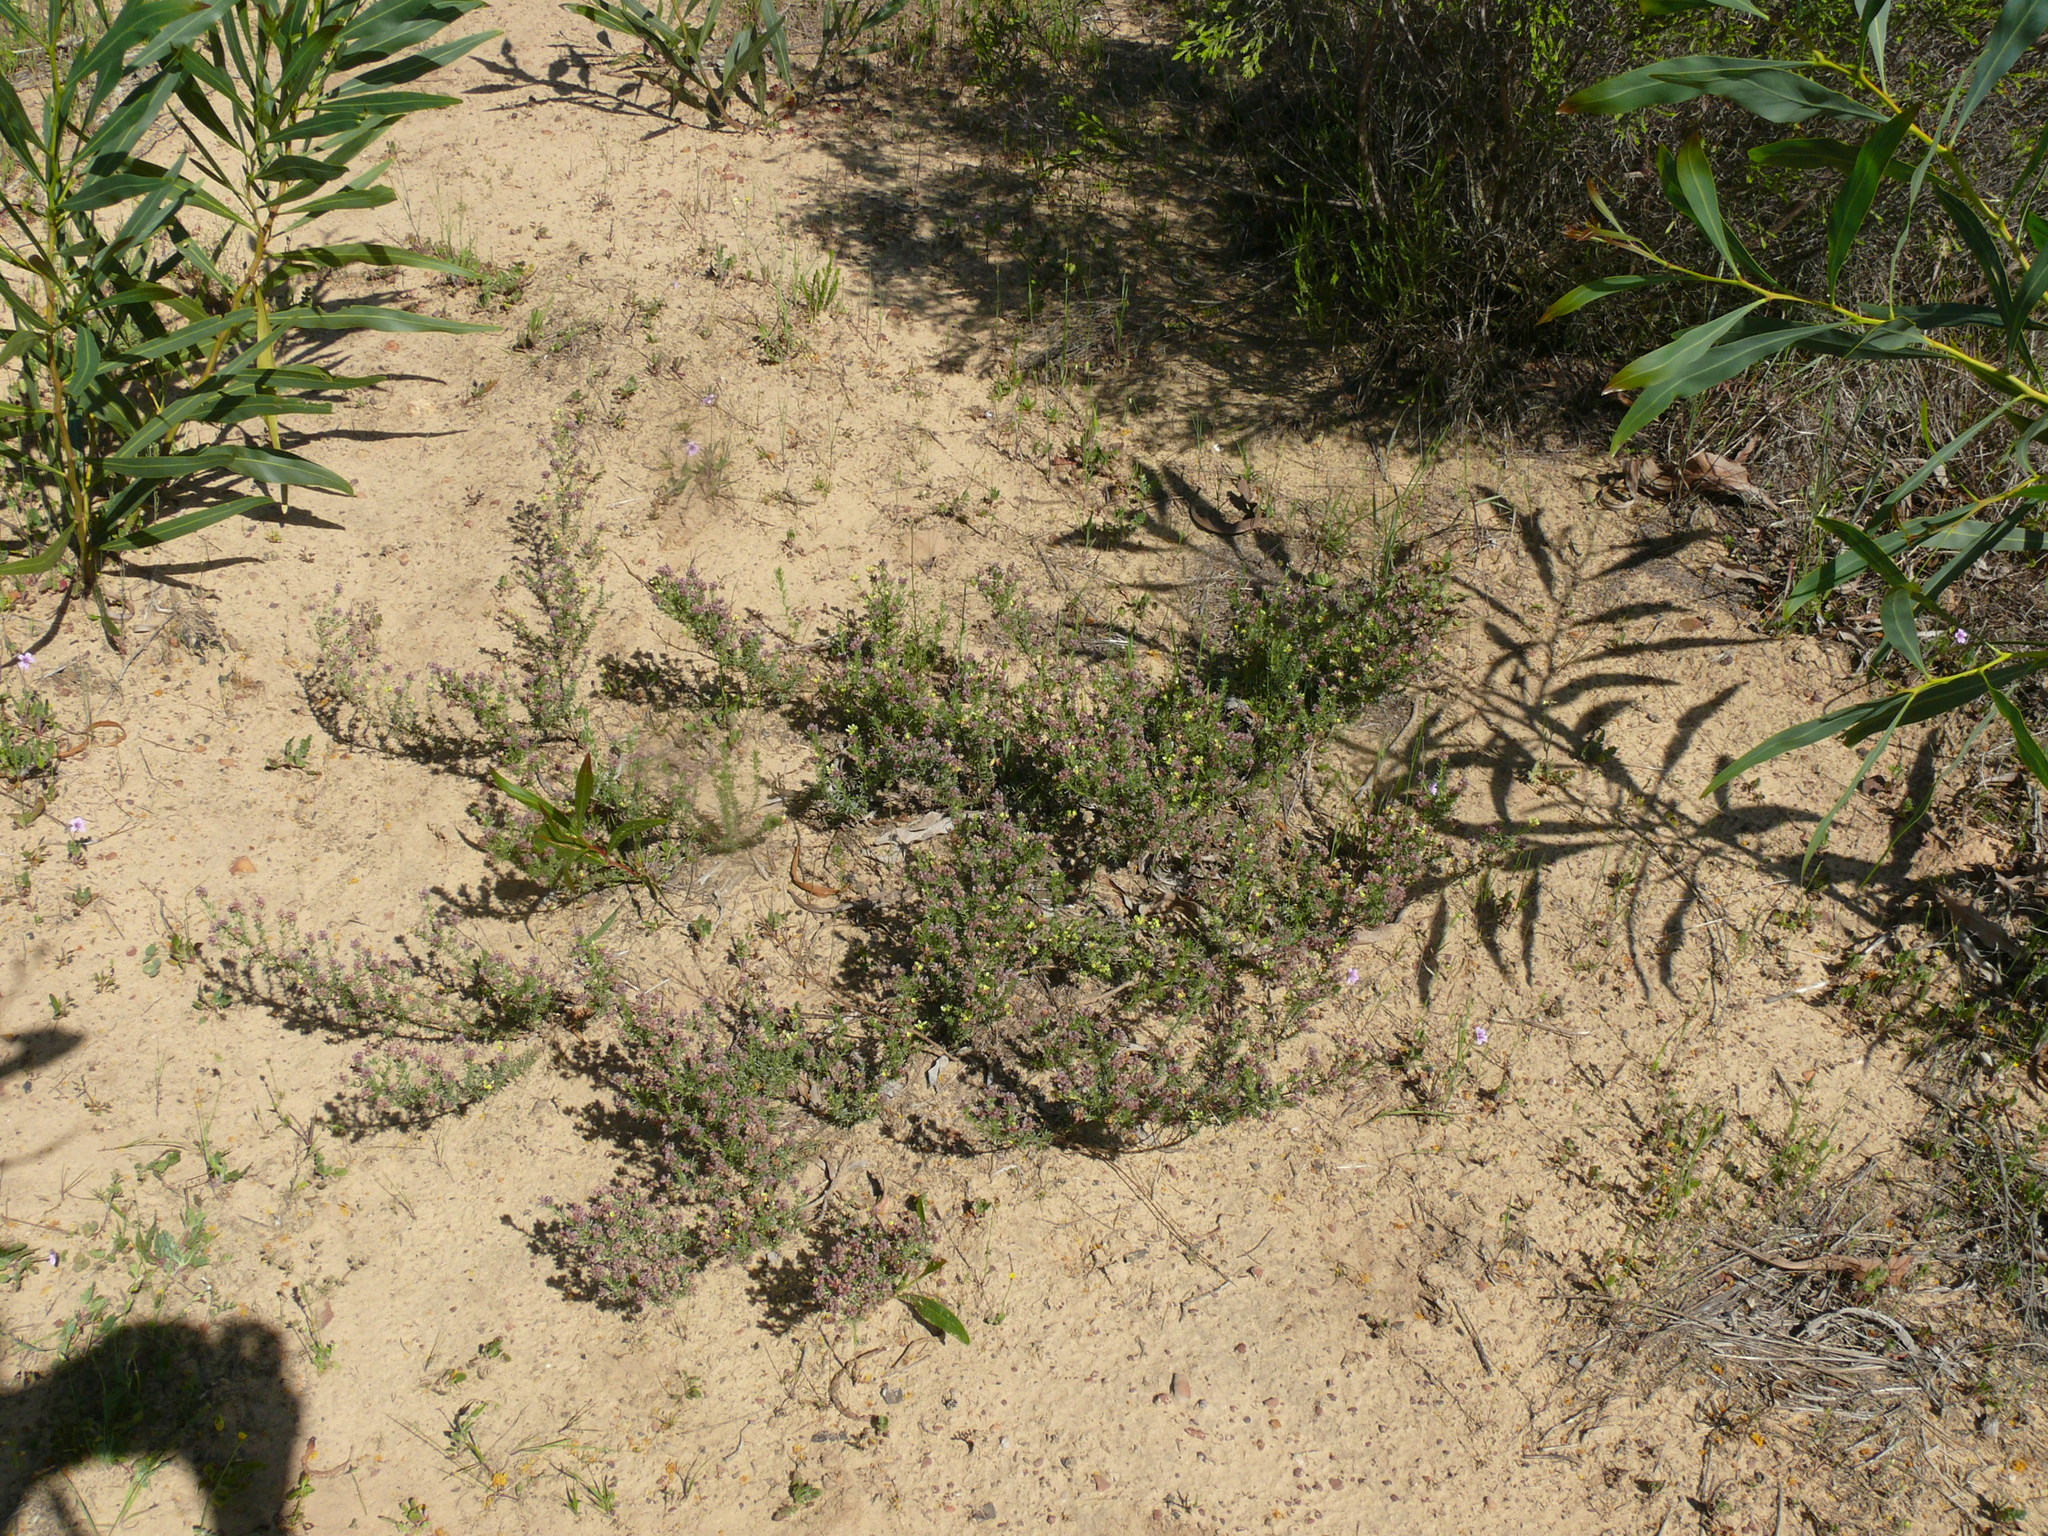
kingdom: Plantae
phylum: Tracheophyta
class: Magnoliopsida
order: Fabales
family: Fabaceae
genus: Aspalathus
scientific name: Aspalathus albens
